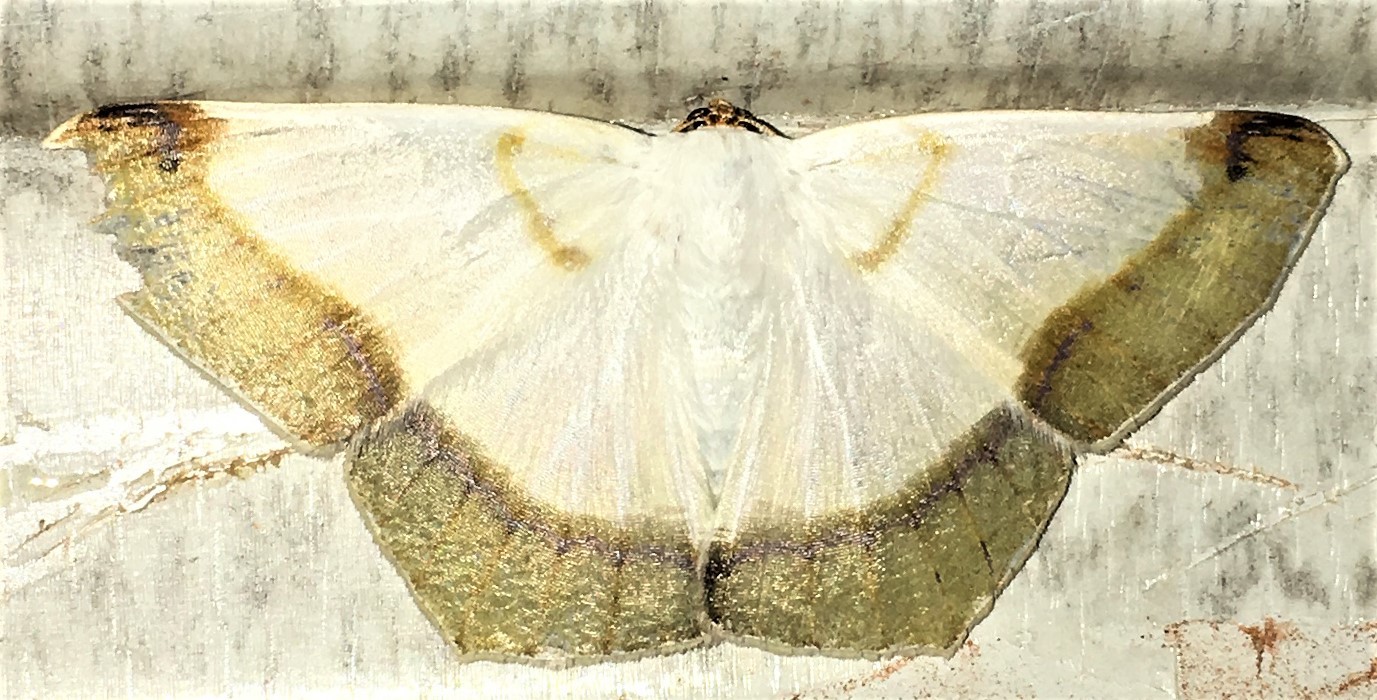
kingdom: Animalia
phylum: Arthropoda
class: Insecta
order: Lepidoptera
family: Geometridae
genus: Sericoptera
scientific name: Sericoptera mahometaria
